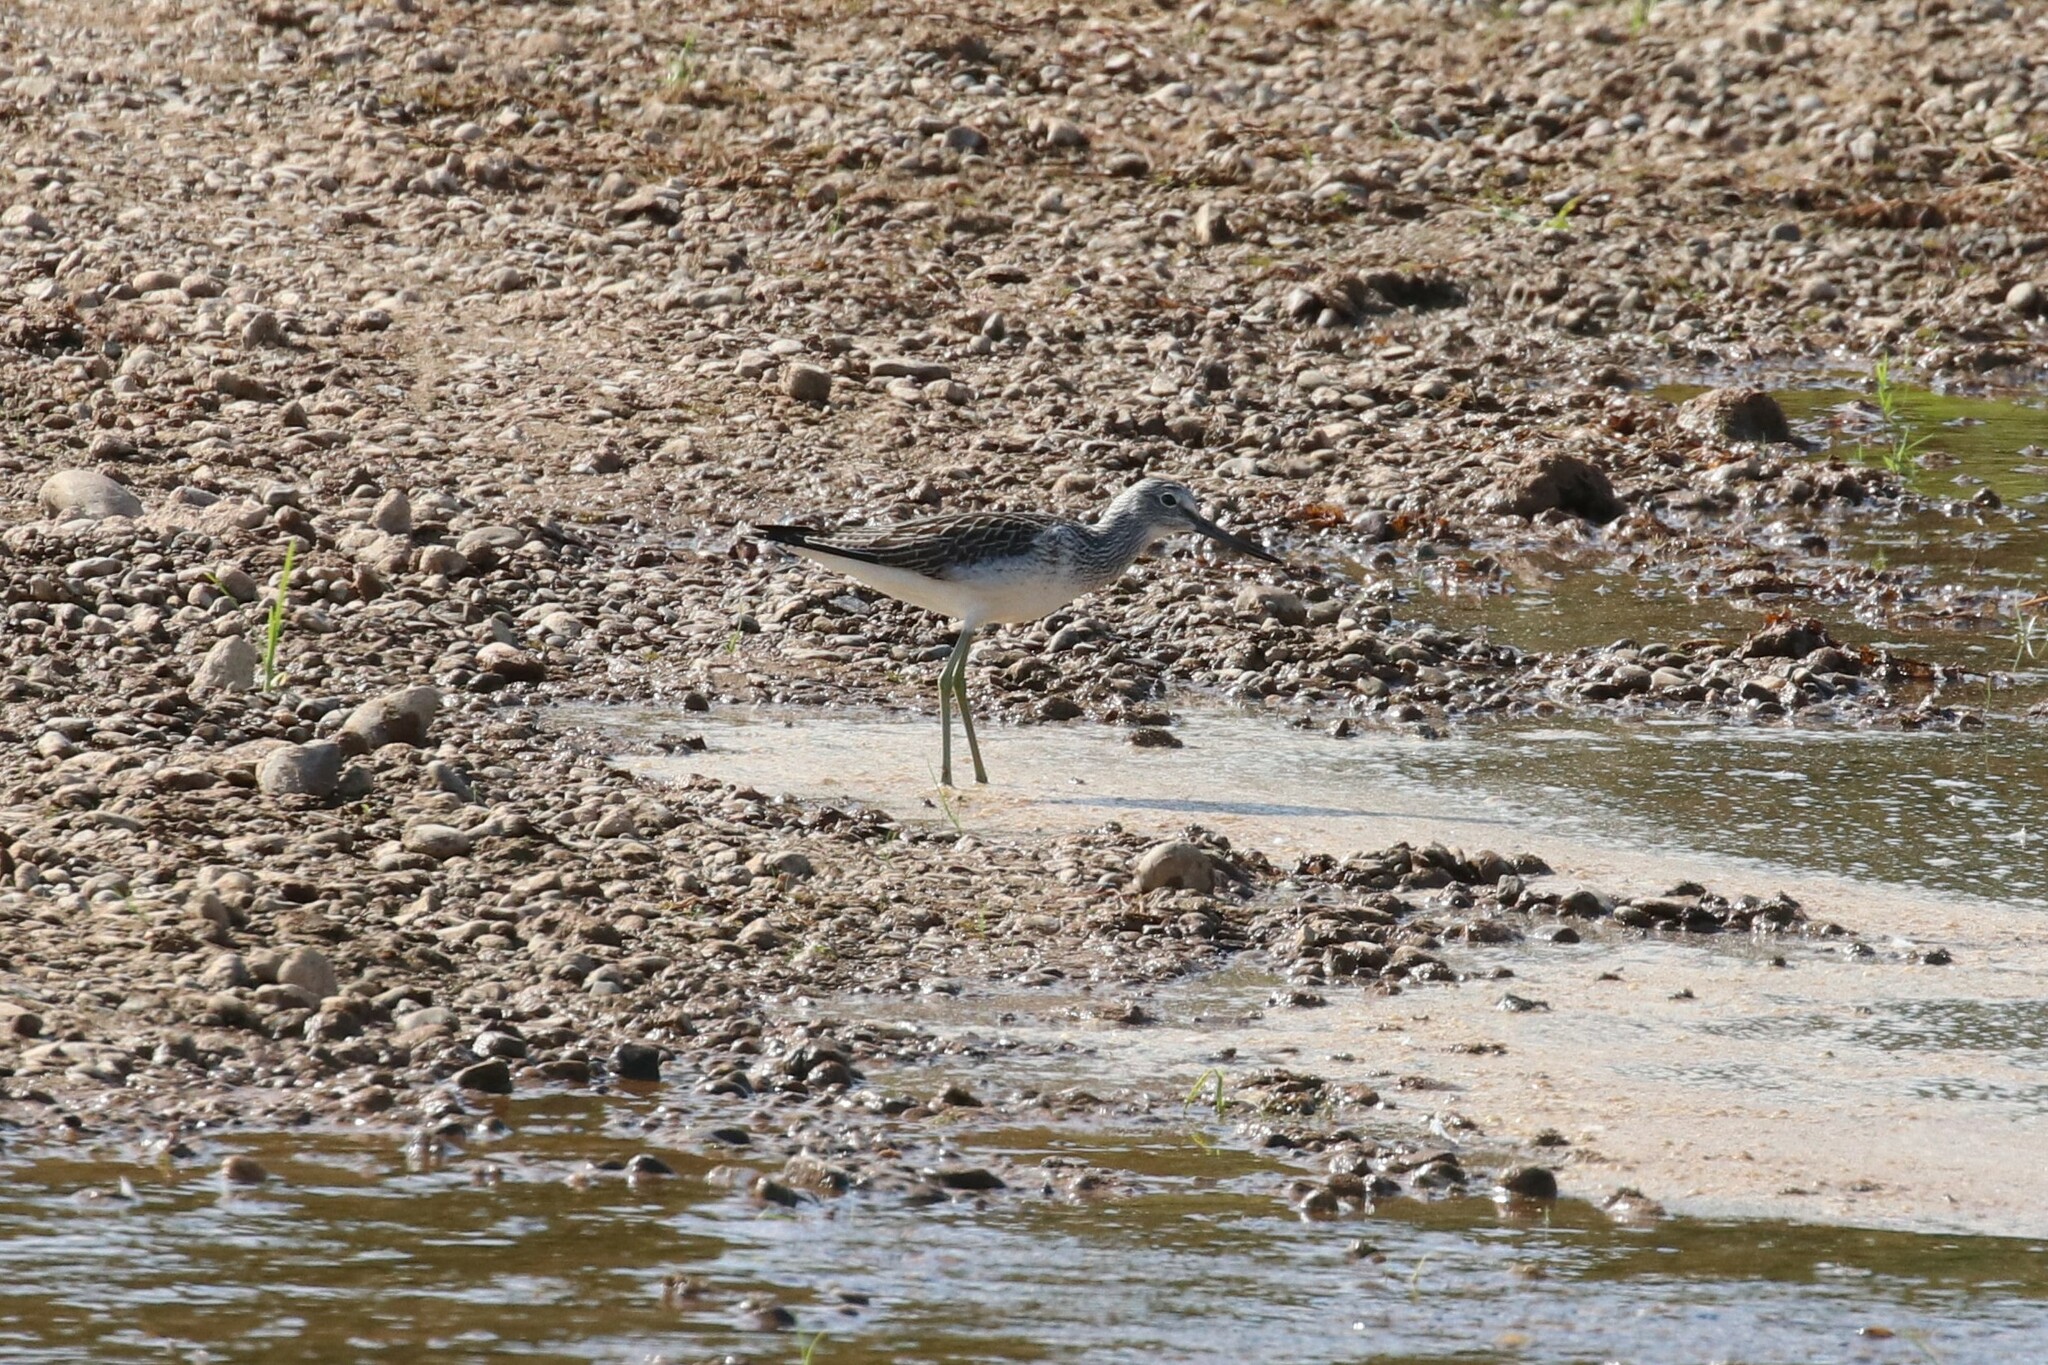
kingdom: Animalia
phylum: Chordata
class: Aves
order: Charadriiformes
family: Scolopacidae
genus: Tringa
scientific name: Tringa nebularia
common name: Common greenshank
